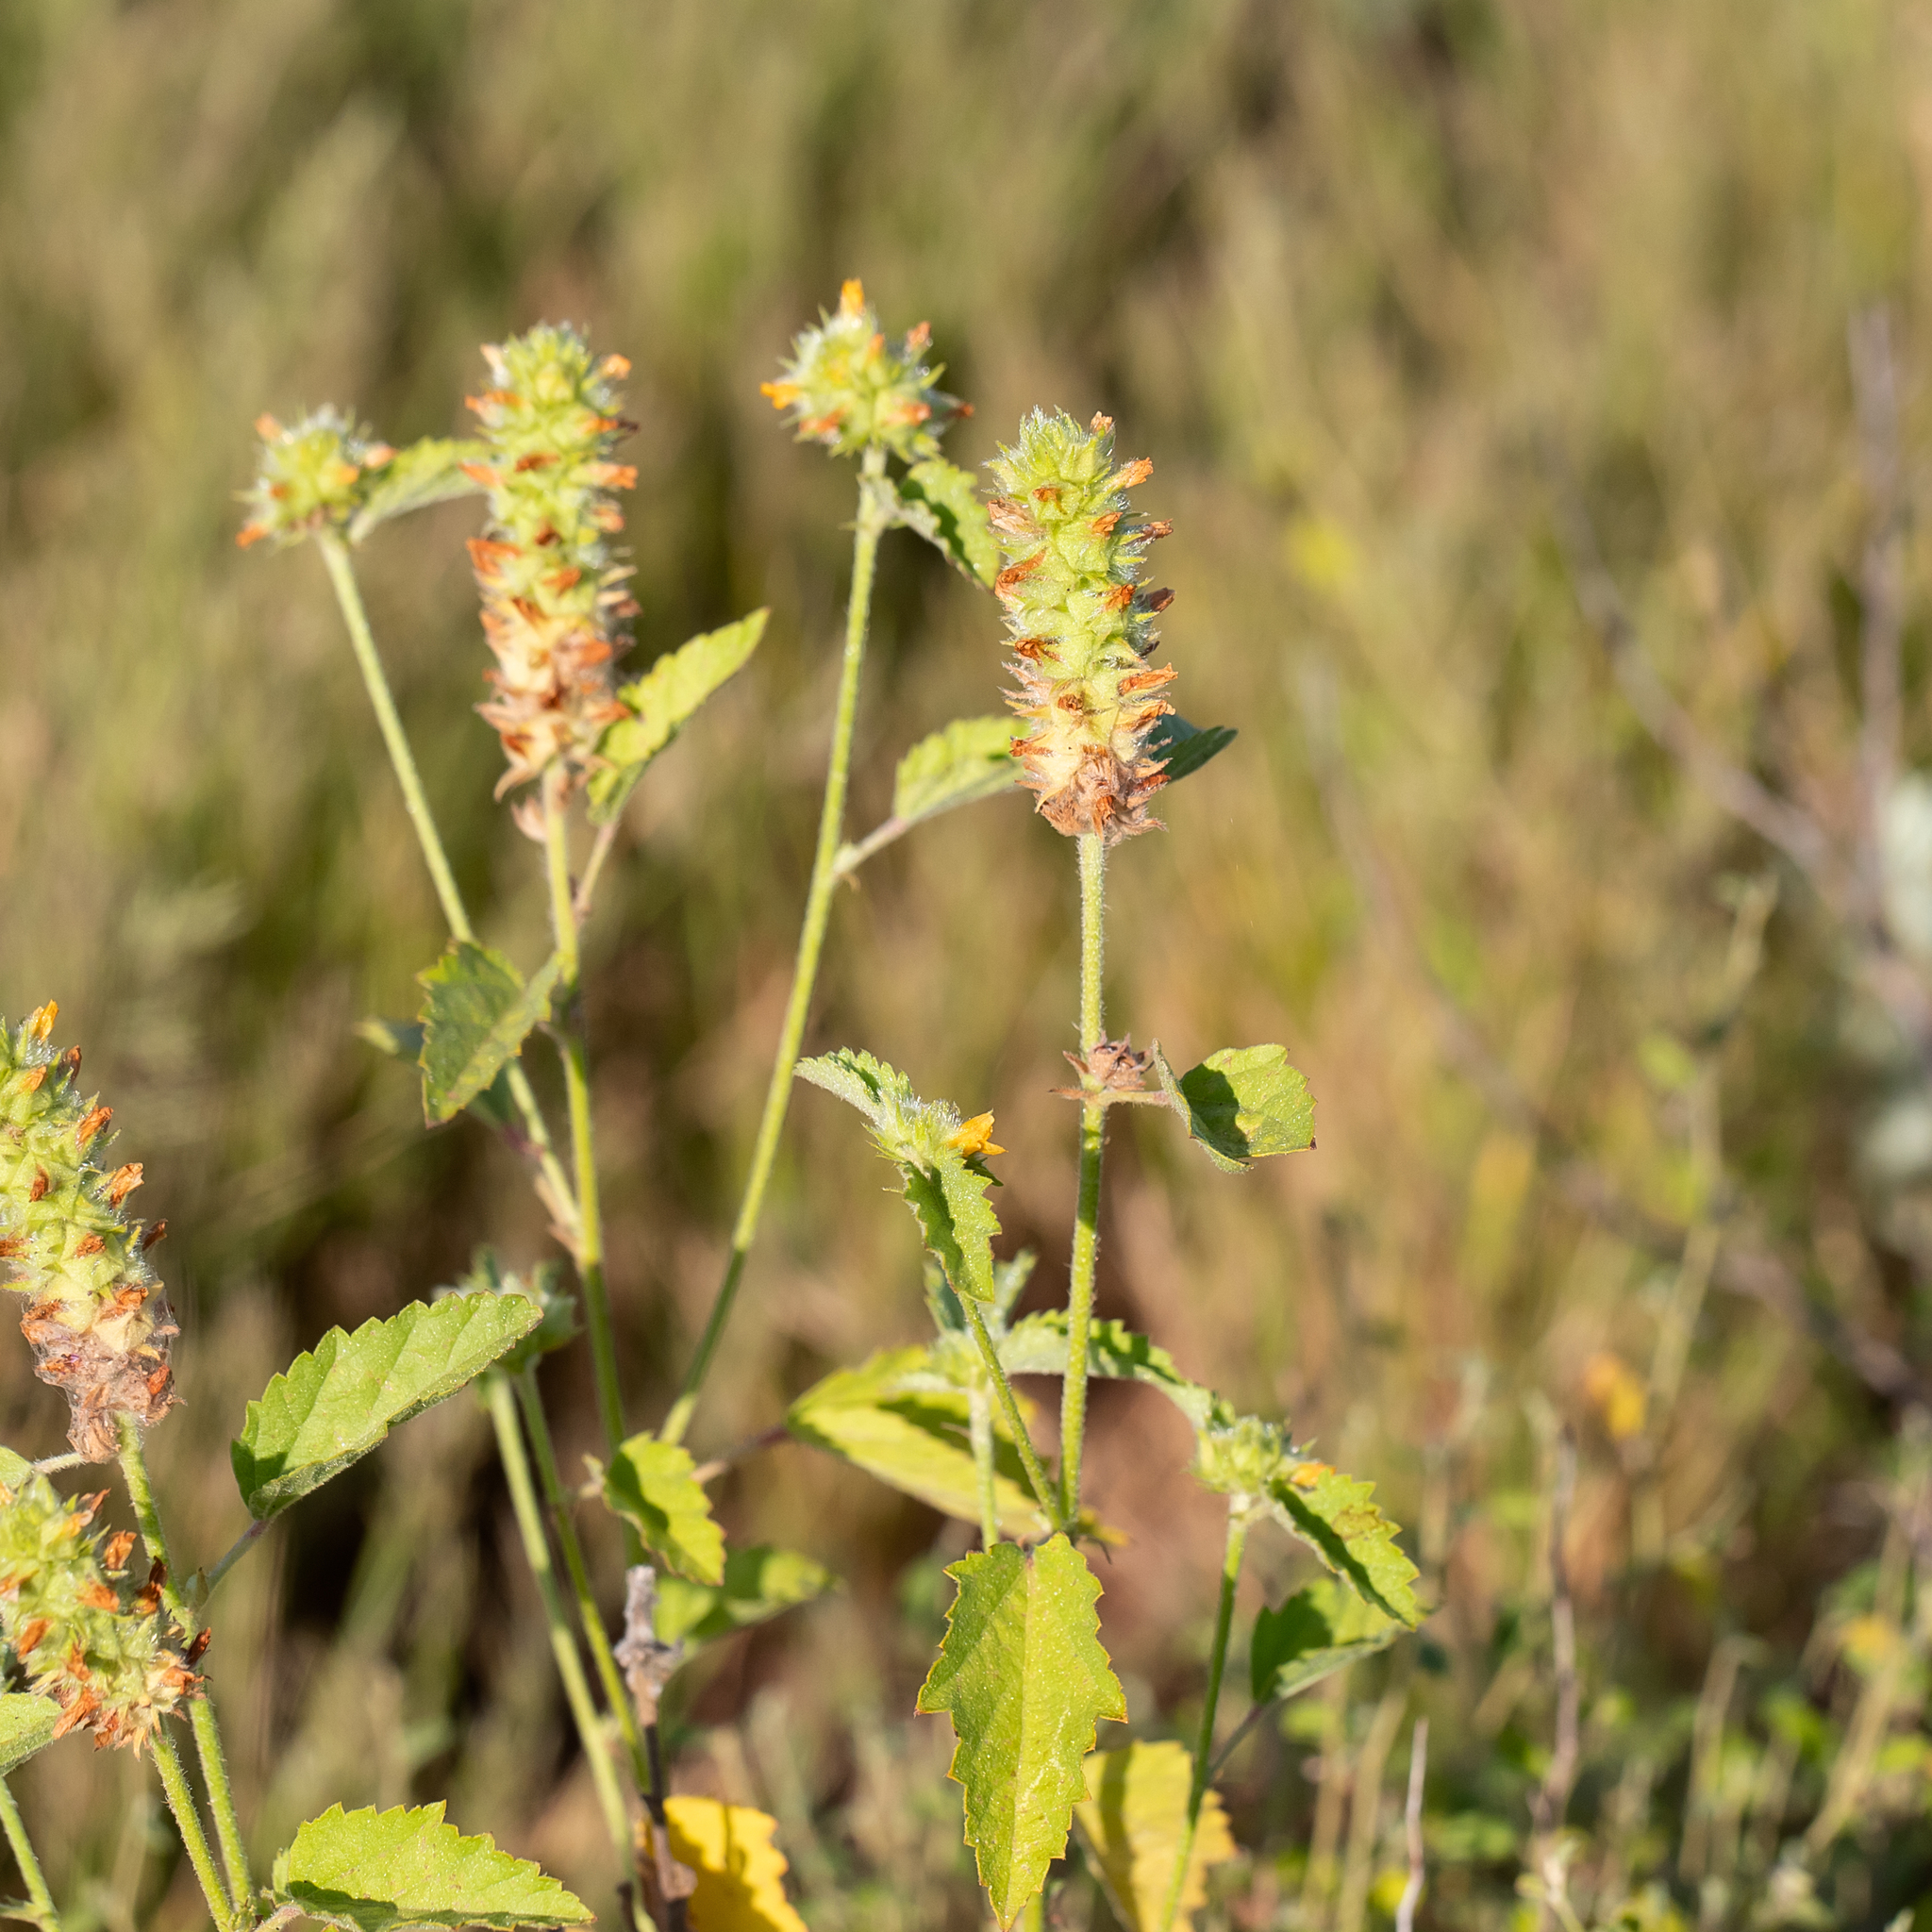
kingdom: Plantae
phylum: Tracheophyta
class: Magnoliopsida
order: Malvales
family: Malvaceae
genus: Malvastrum
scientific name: Malvastrum americanum
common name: Spiked malvastrum
